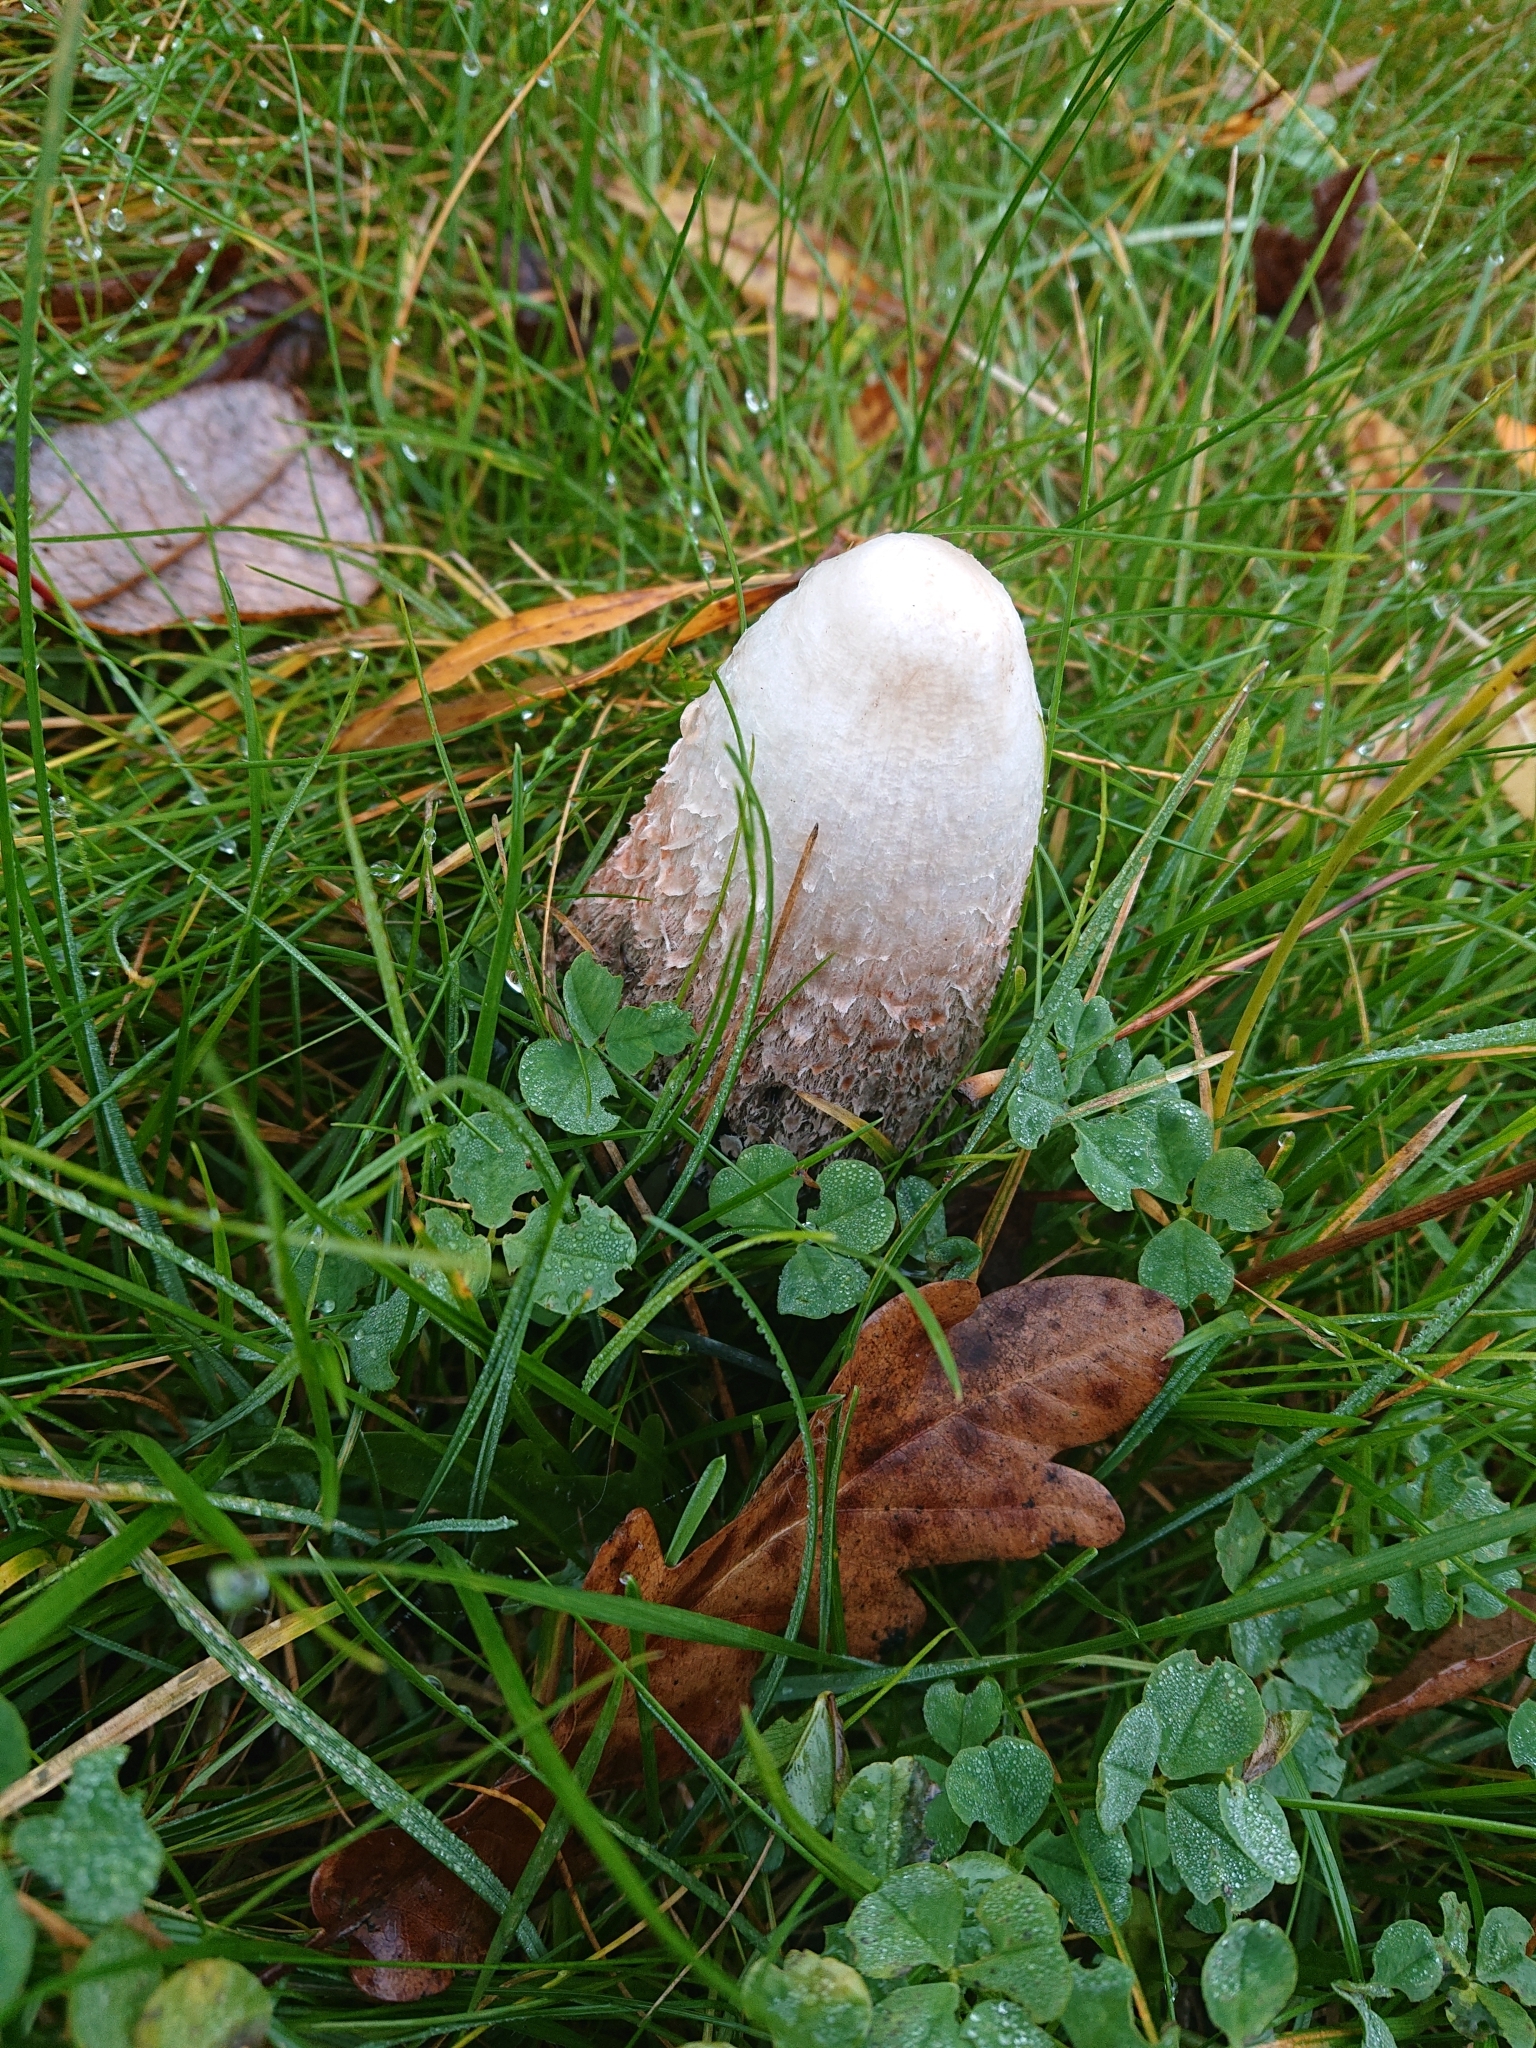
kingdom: Fungi
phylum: Basidiomycota
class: Agaricomycetes
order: Agaricales
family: Agaricaceae
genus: Coprinus
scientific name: Coprinus comatus
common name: Lawyer's wig
